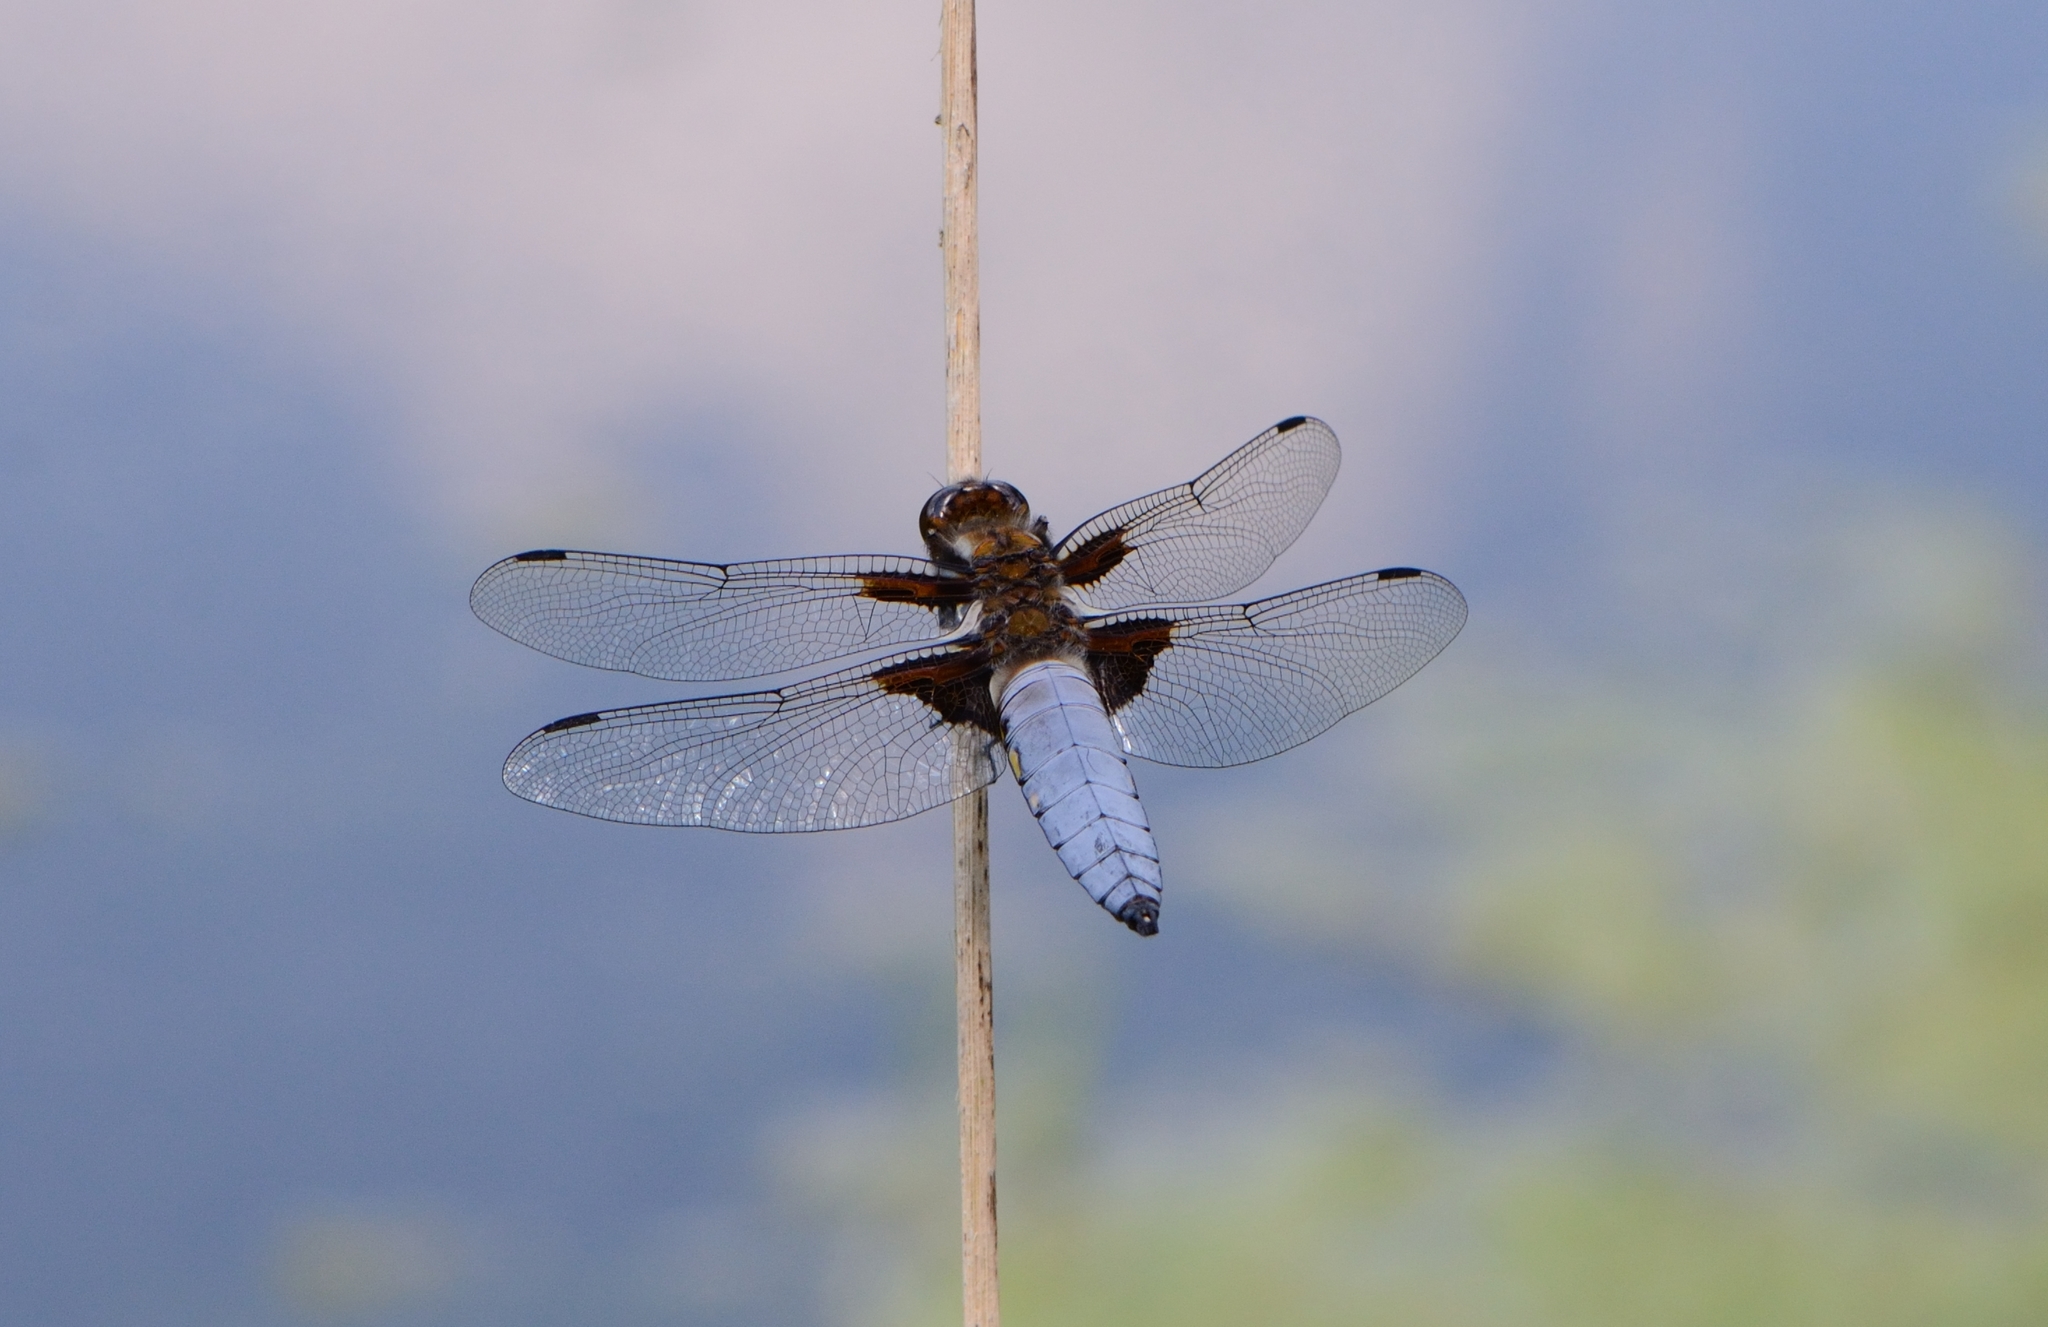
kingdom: Animalia
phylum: Arthropoda
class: Insecta
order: Odonata
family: Libellulidae
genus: Libellula
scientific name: Libellula depressa
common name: Broad-bodied chaser
